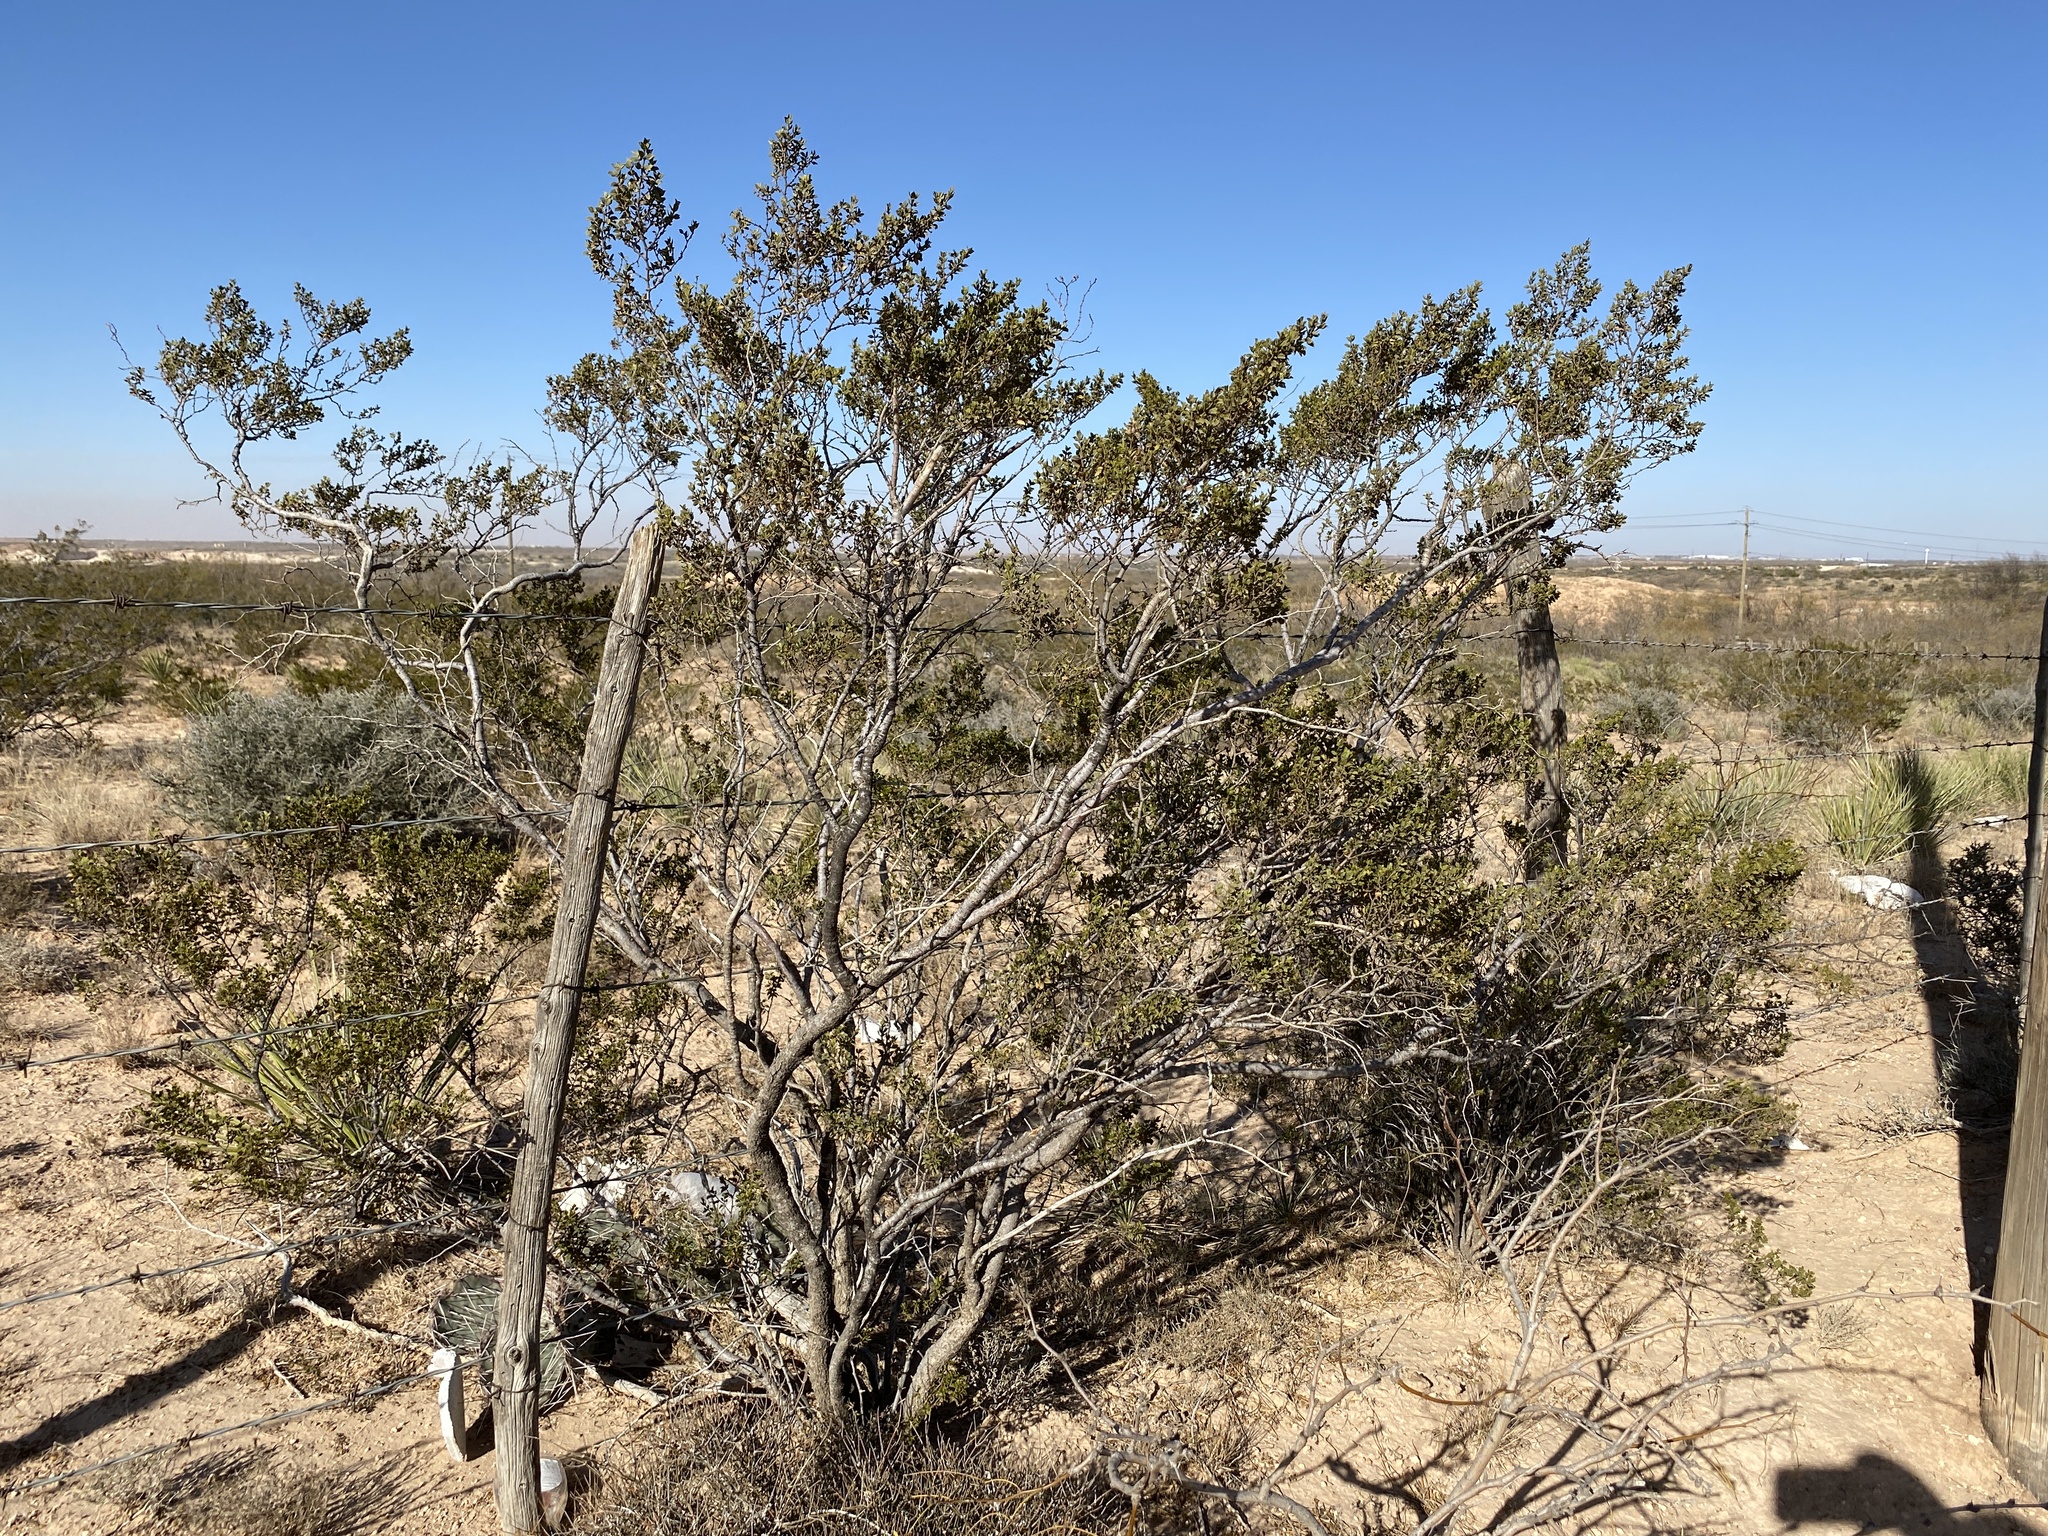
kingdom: Plantae
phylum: Tracheophyta
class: Magnoliopsida
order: Zygophyllales
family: Zygophyllaceae
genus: Larrea
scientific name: Larrea tridentata
